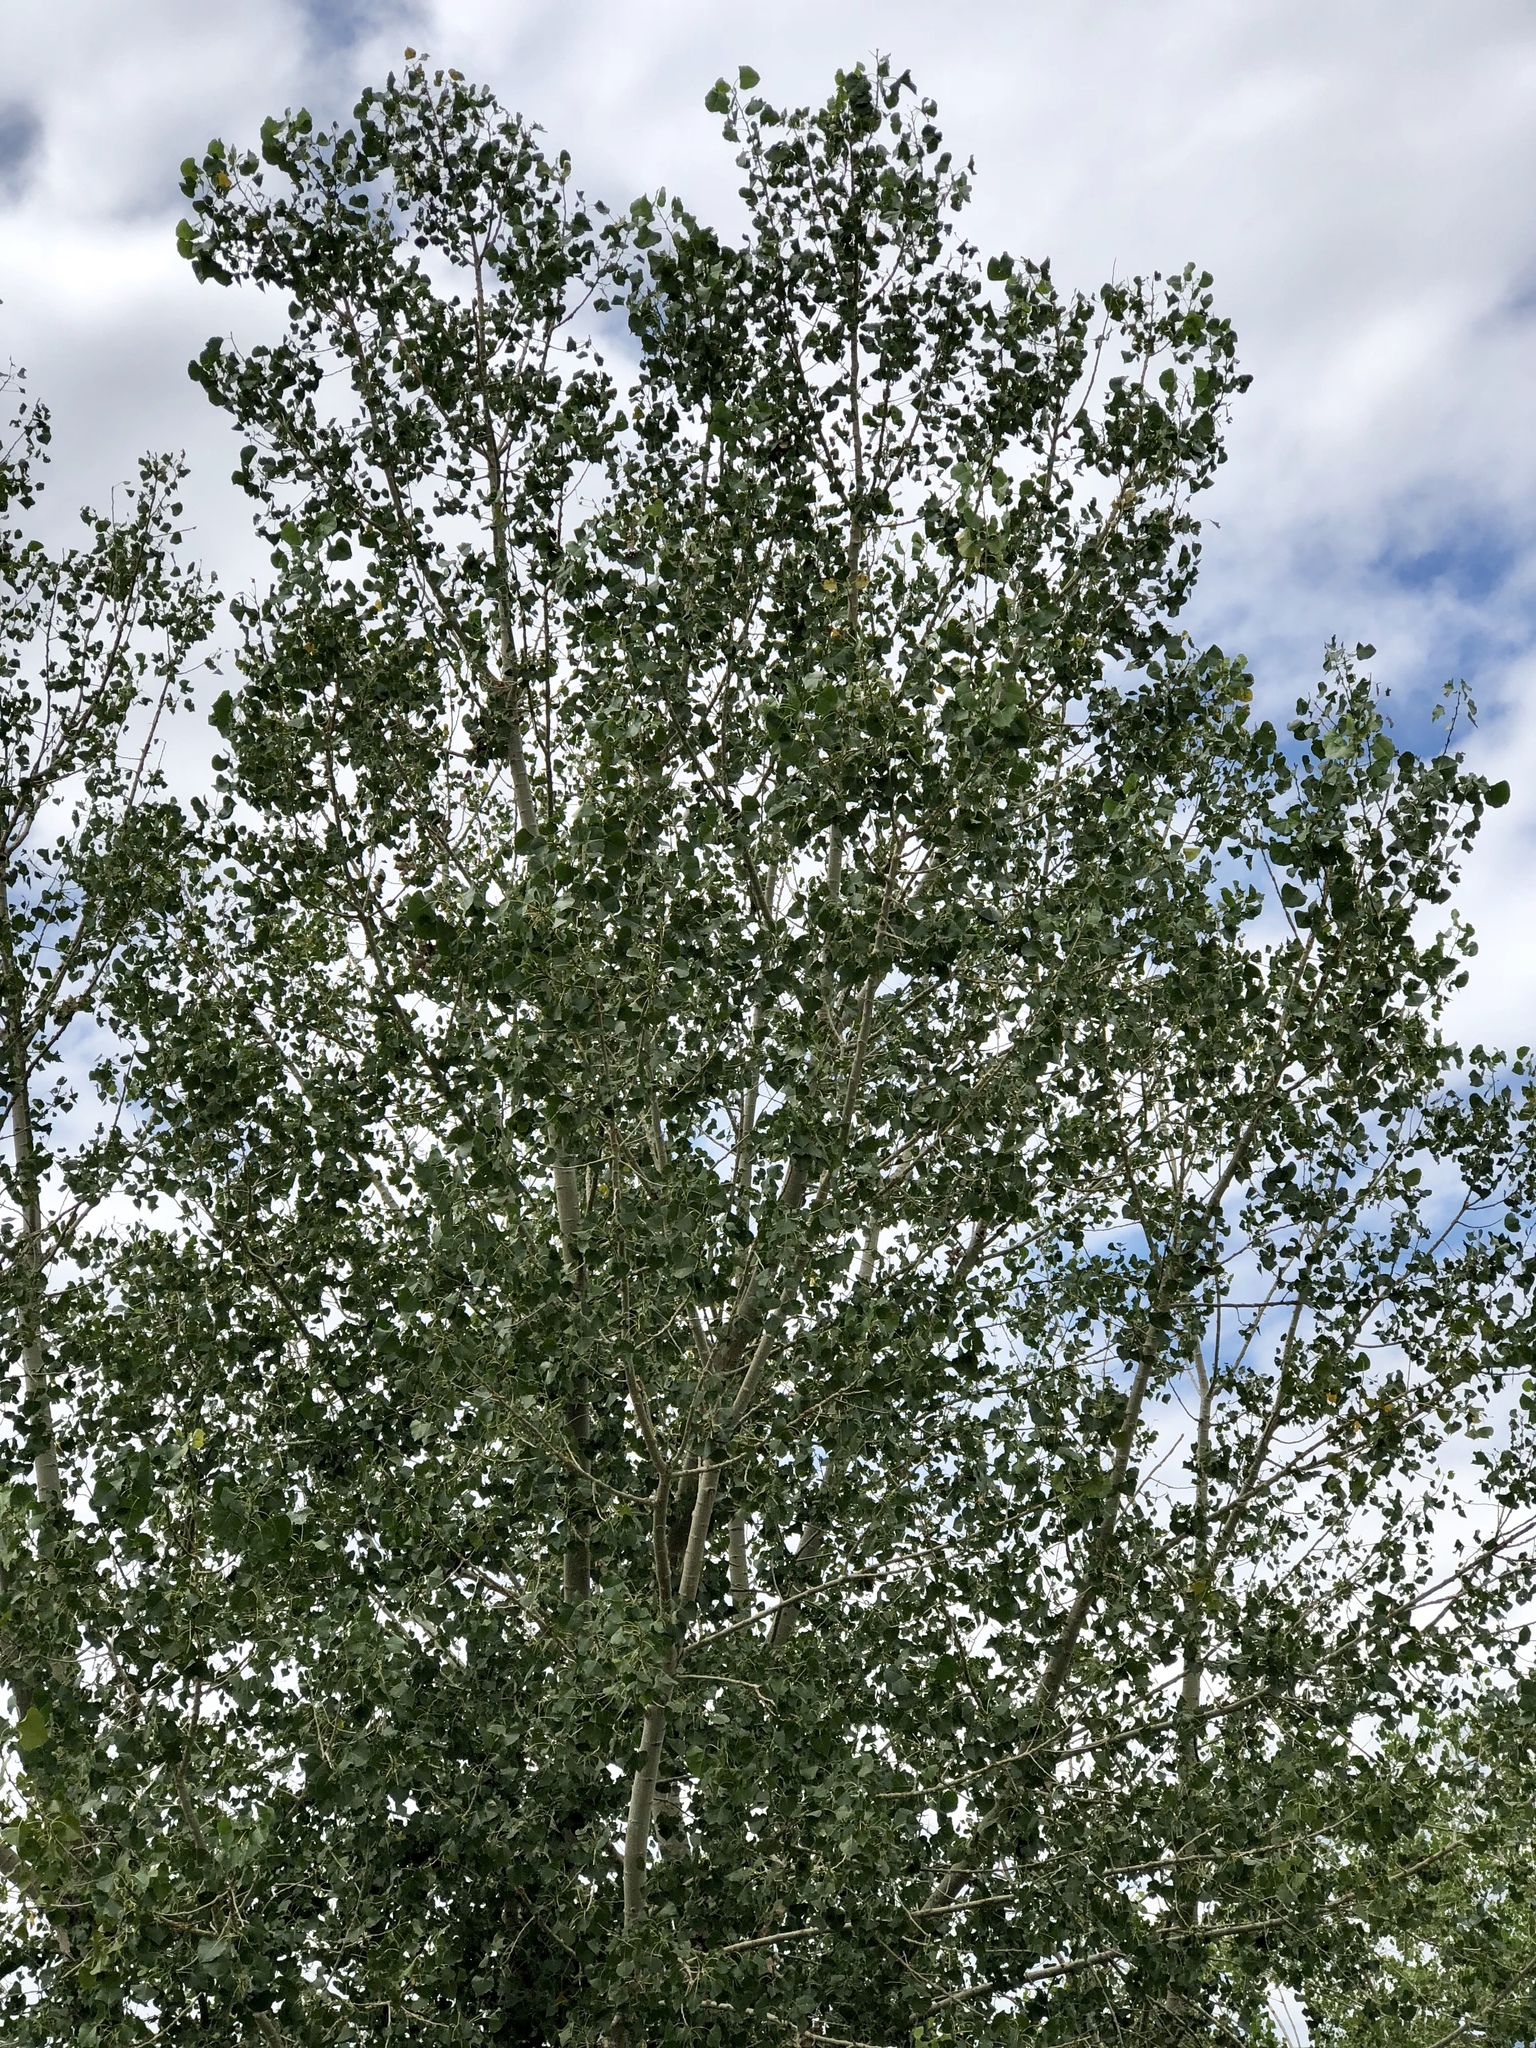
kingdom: Plantae
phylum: Tracheophyta
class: Magnoliopsida
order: Malpighiales
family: Salicaceae
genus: Populus
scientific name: Populus deltoides
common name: Eastern cottonwood
